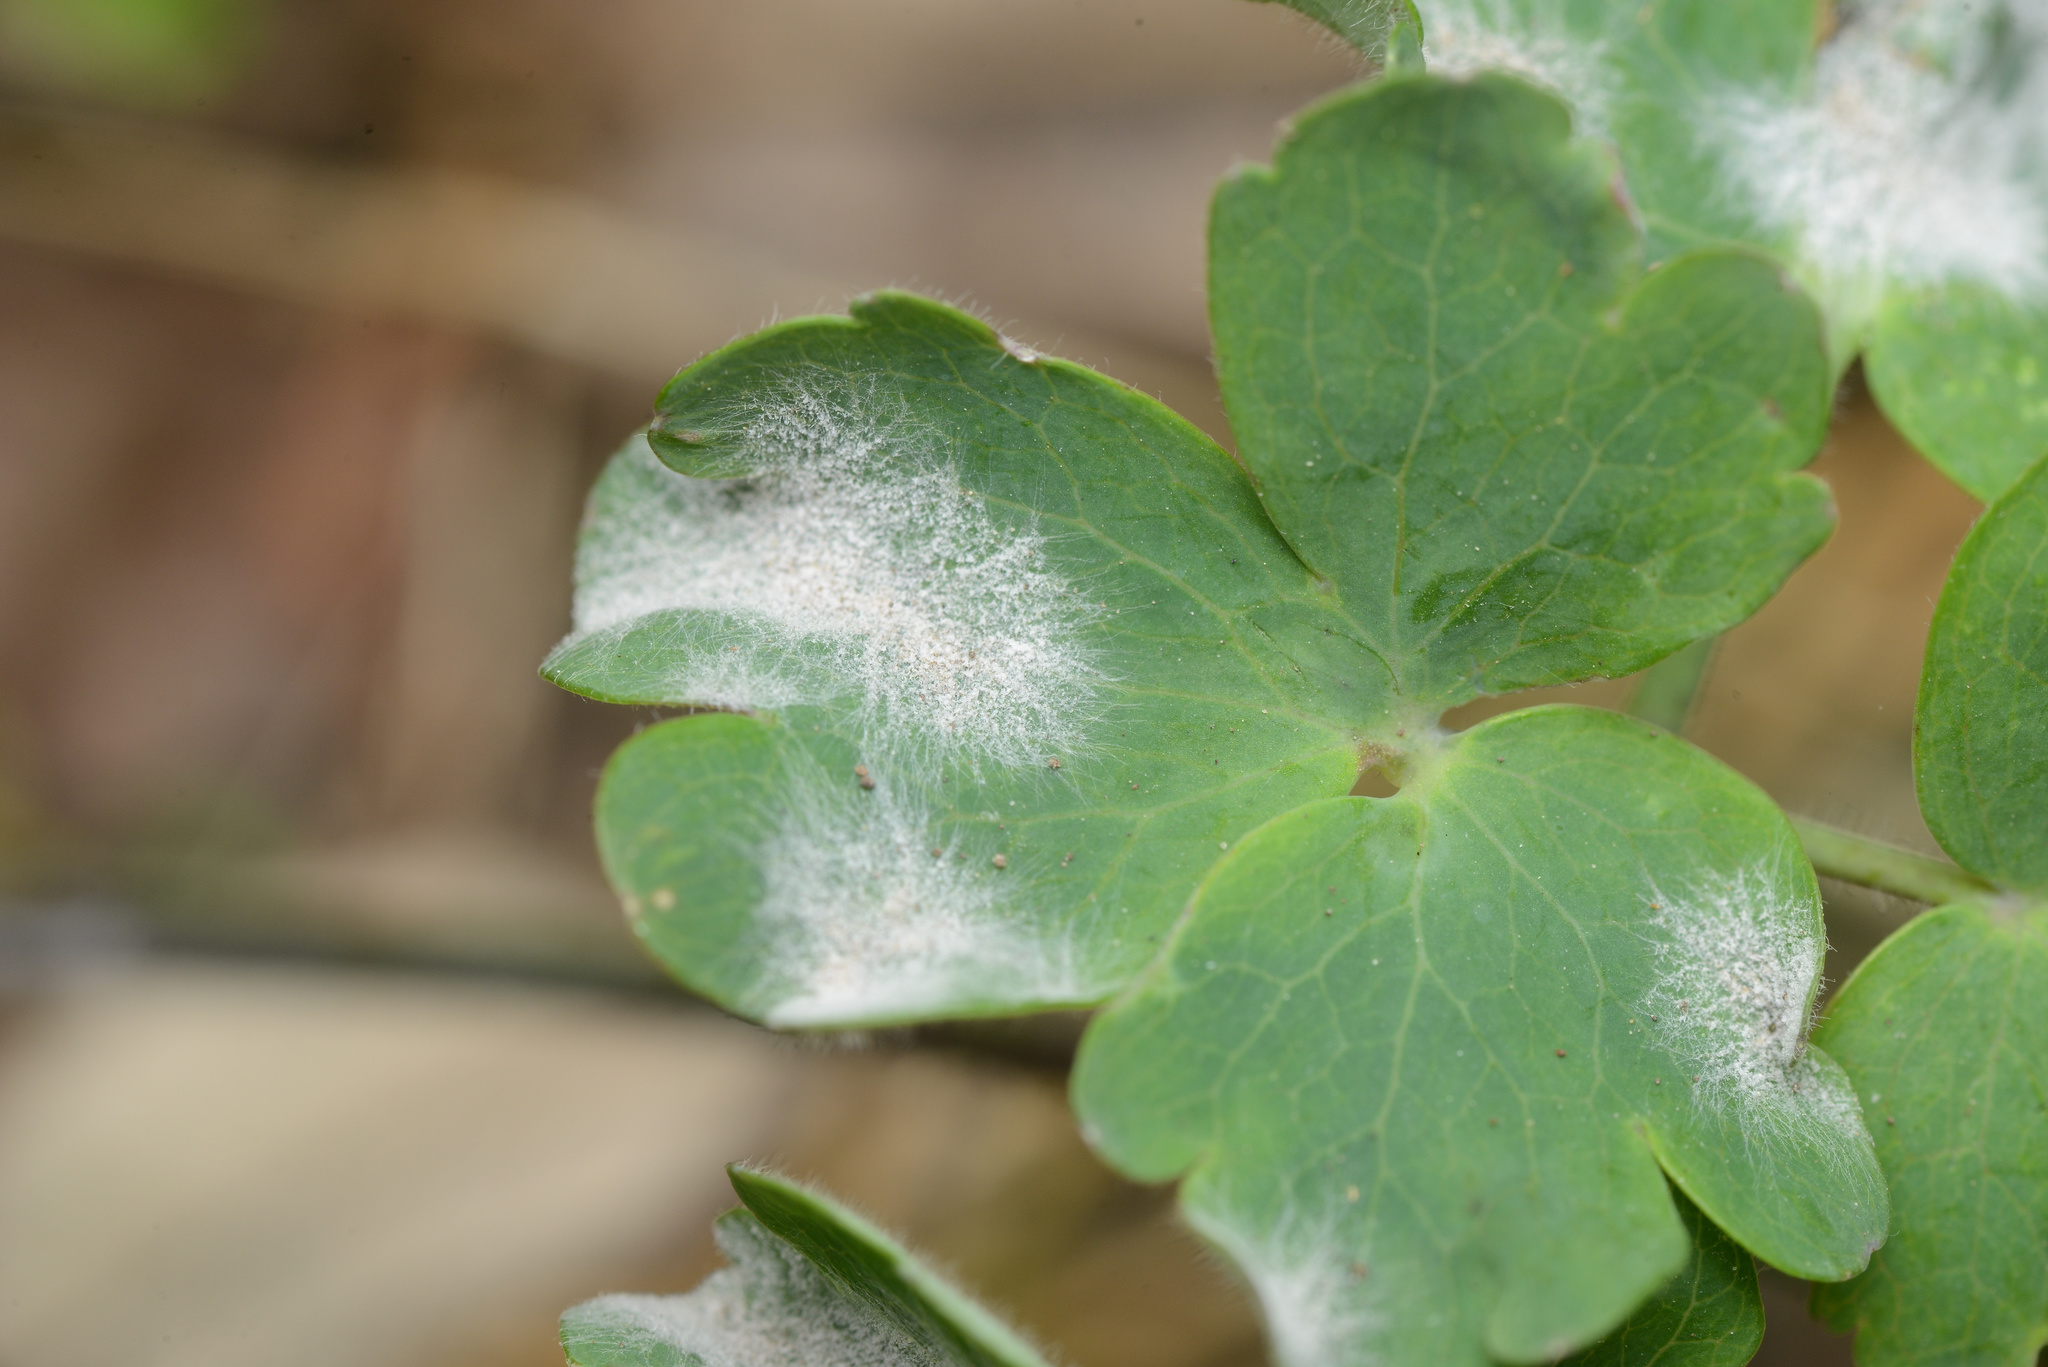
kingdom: Fungi
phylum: Ascomycota
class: Leotiomycetes
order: Helotiales
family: Erysiphaceae
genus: Erysiphe
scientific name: Erysiphe aquilegiae
